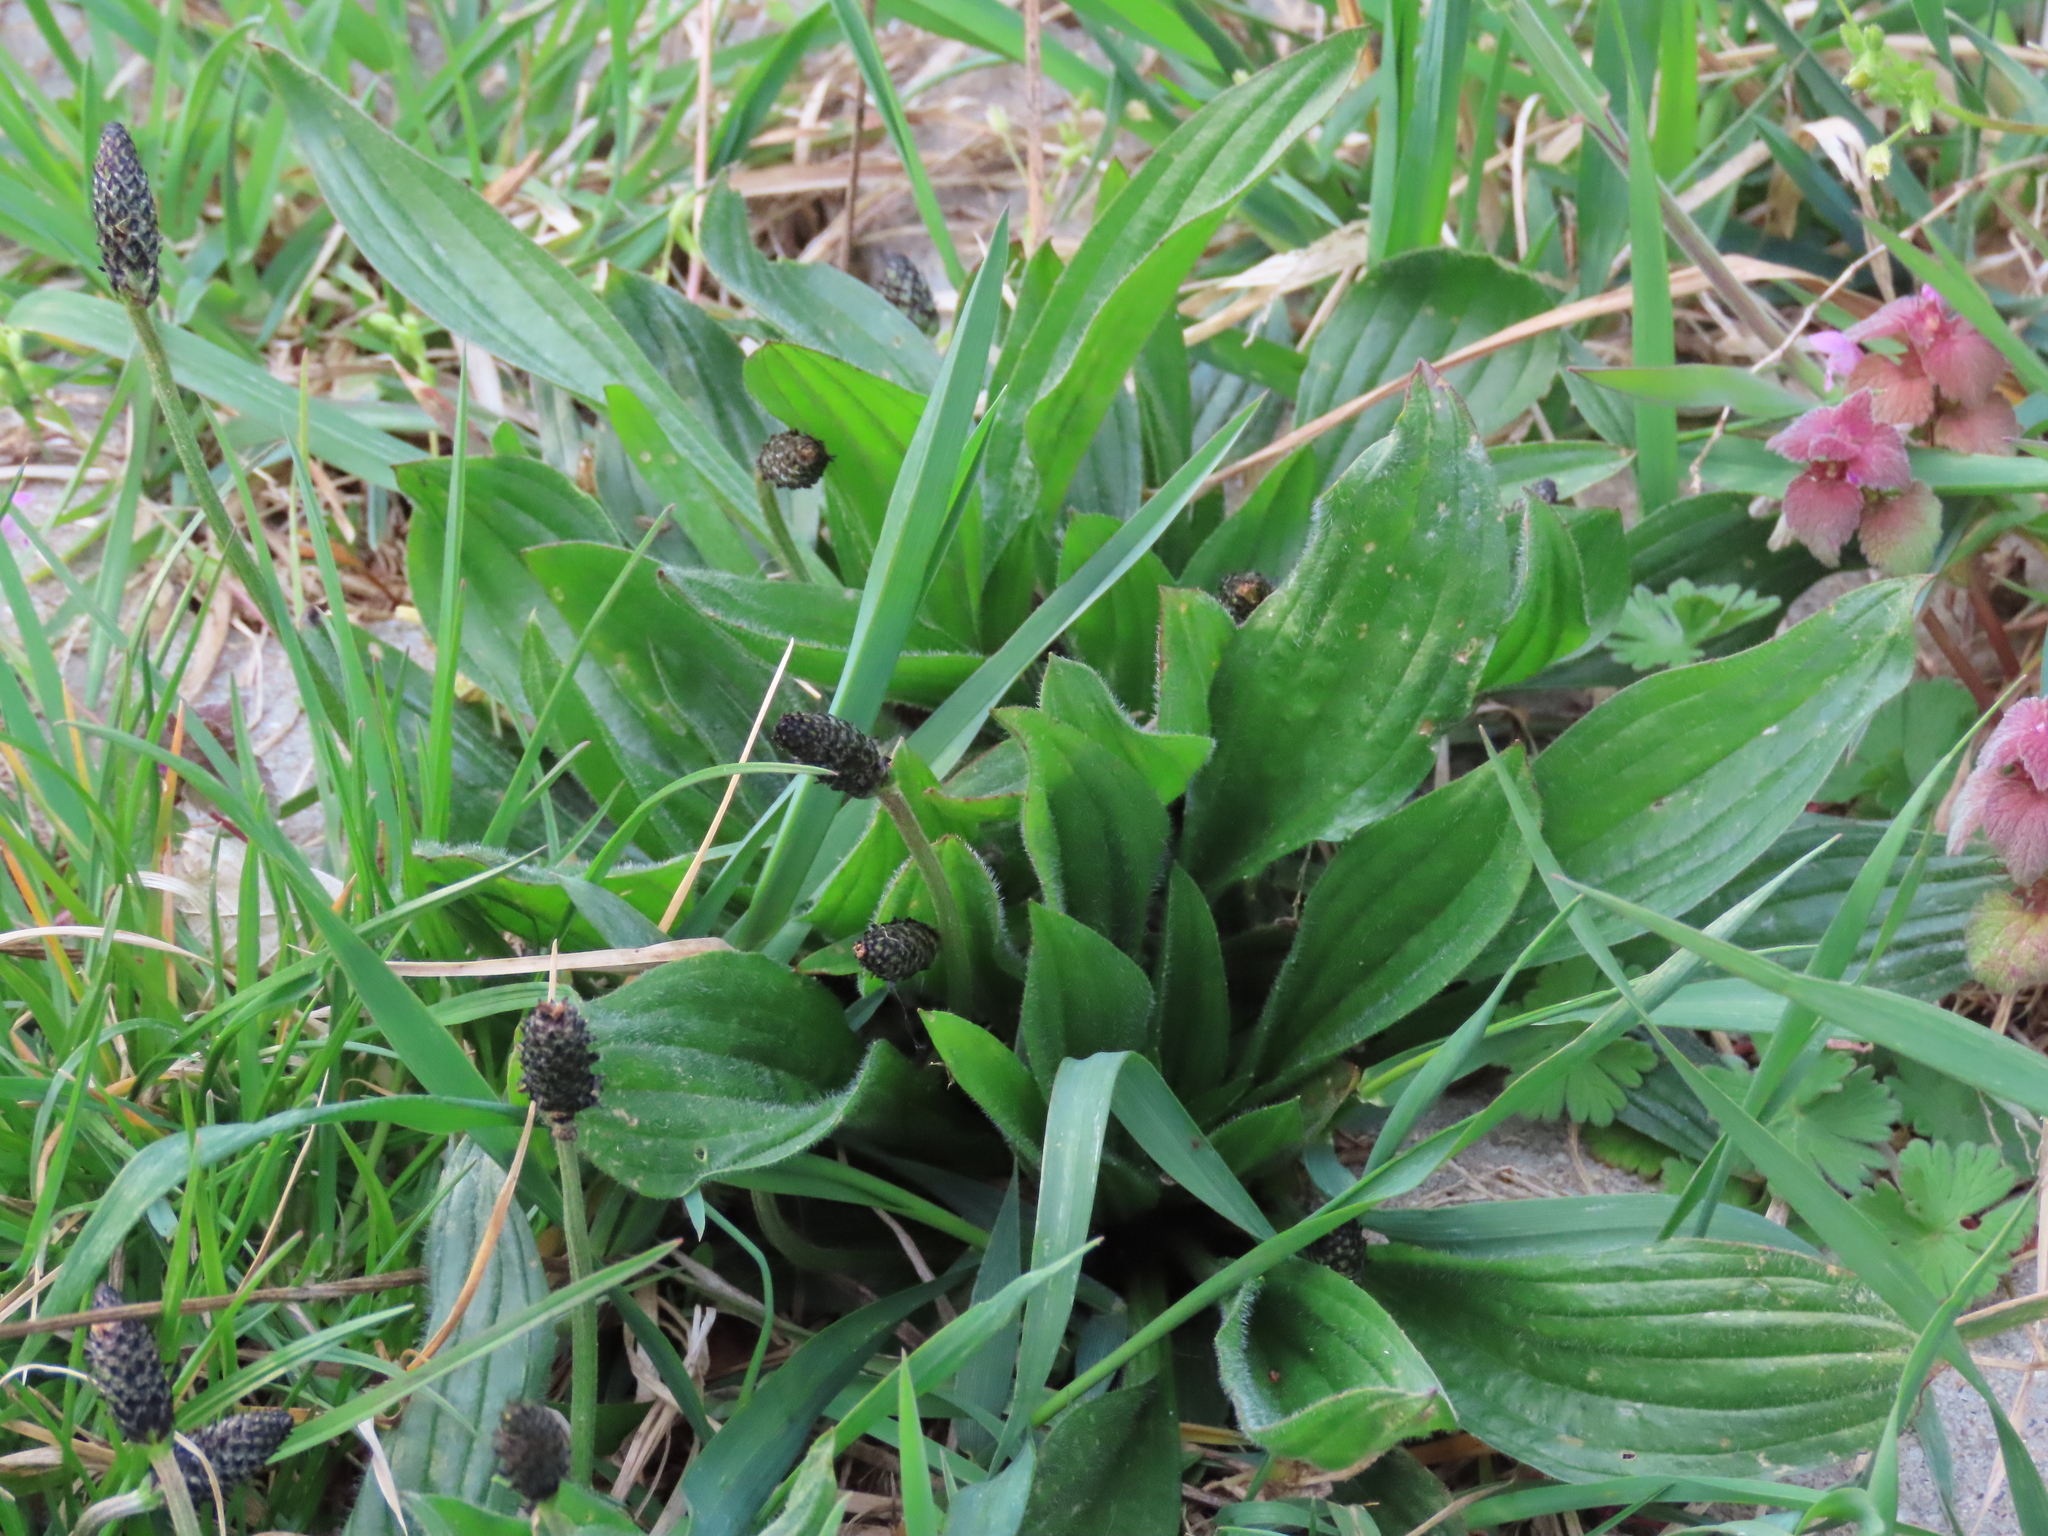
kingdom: Plantae
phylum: Tracheophyta
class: Magnoliopsida
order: Lamiales
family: Plantaginaceae
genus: Plantago
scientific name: Plantago lanceolata
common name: Ribwort plantain
